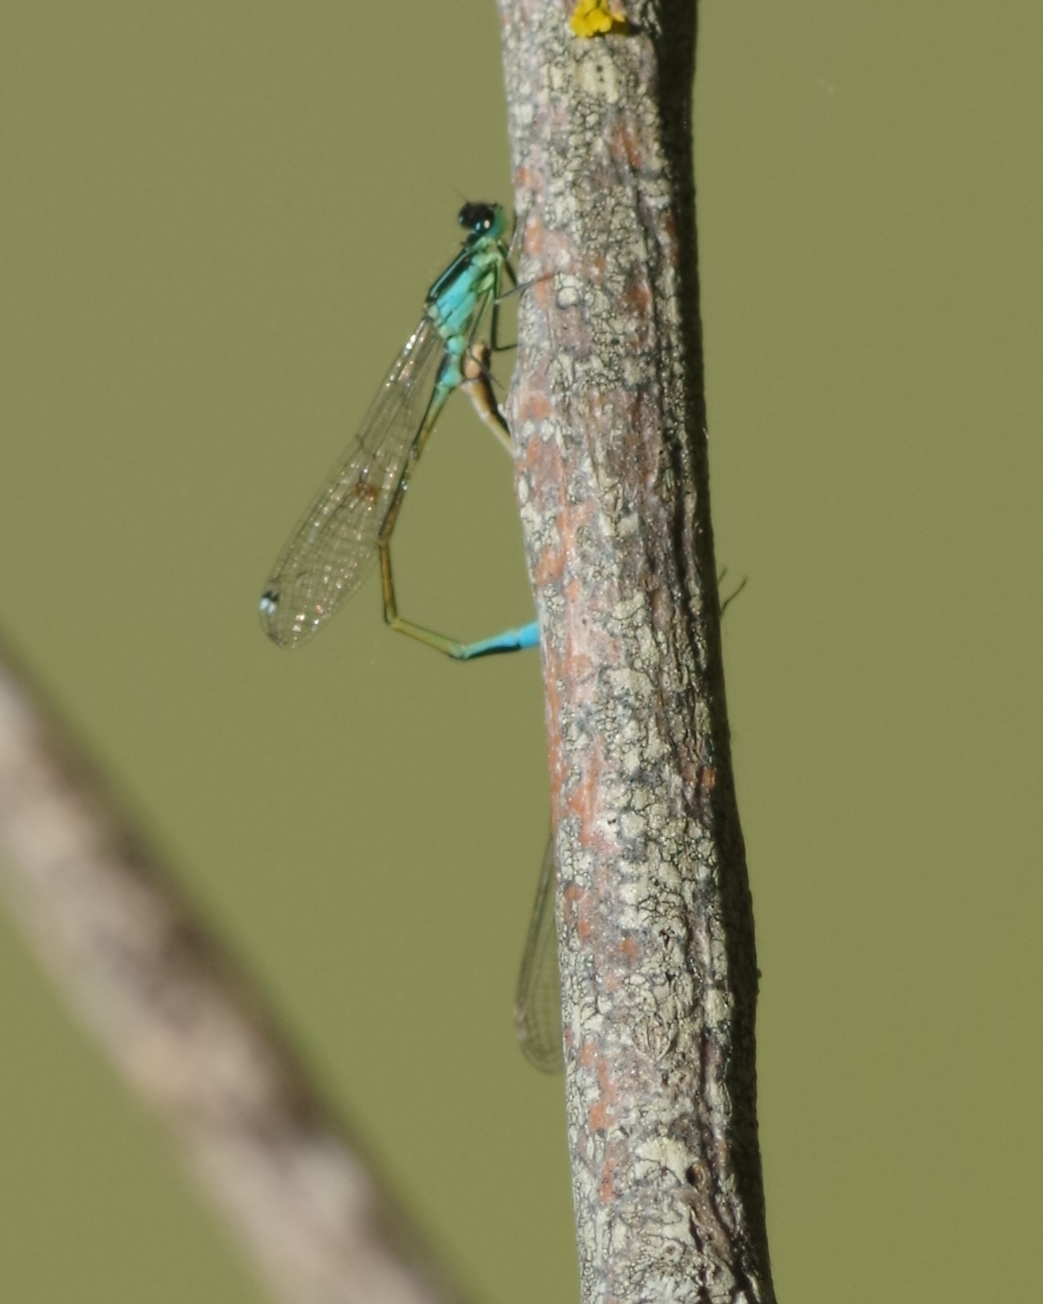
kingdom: Animalia
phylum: Arthropoda
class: Insecta
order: Odonata
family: Coenagrionidae
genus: Ischnura
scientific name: Ischnura elegans
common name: Blue-tailed damselfly
